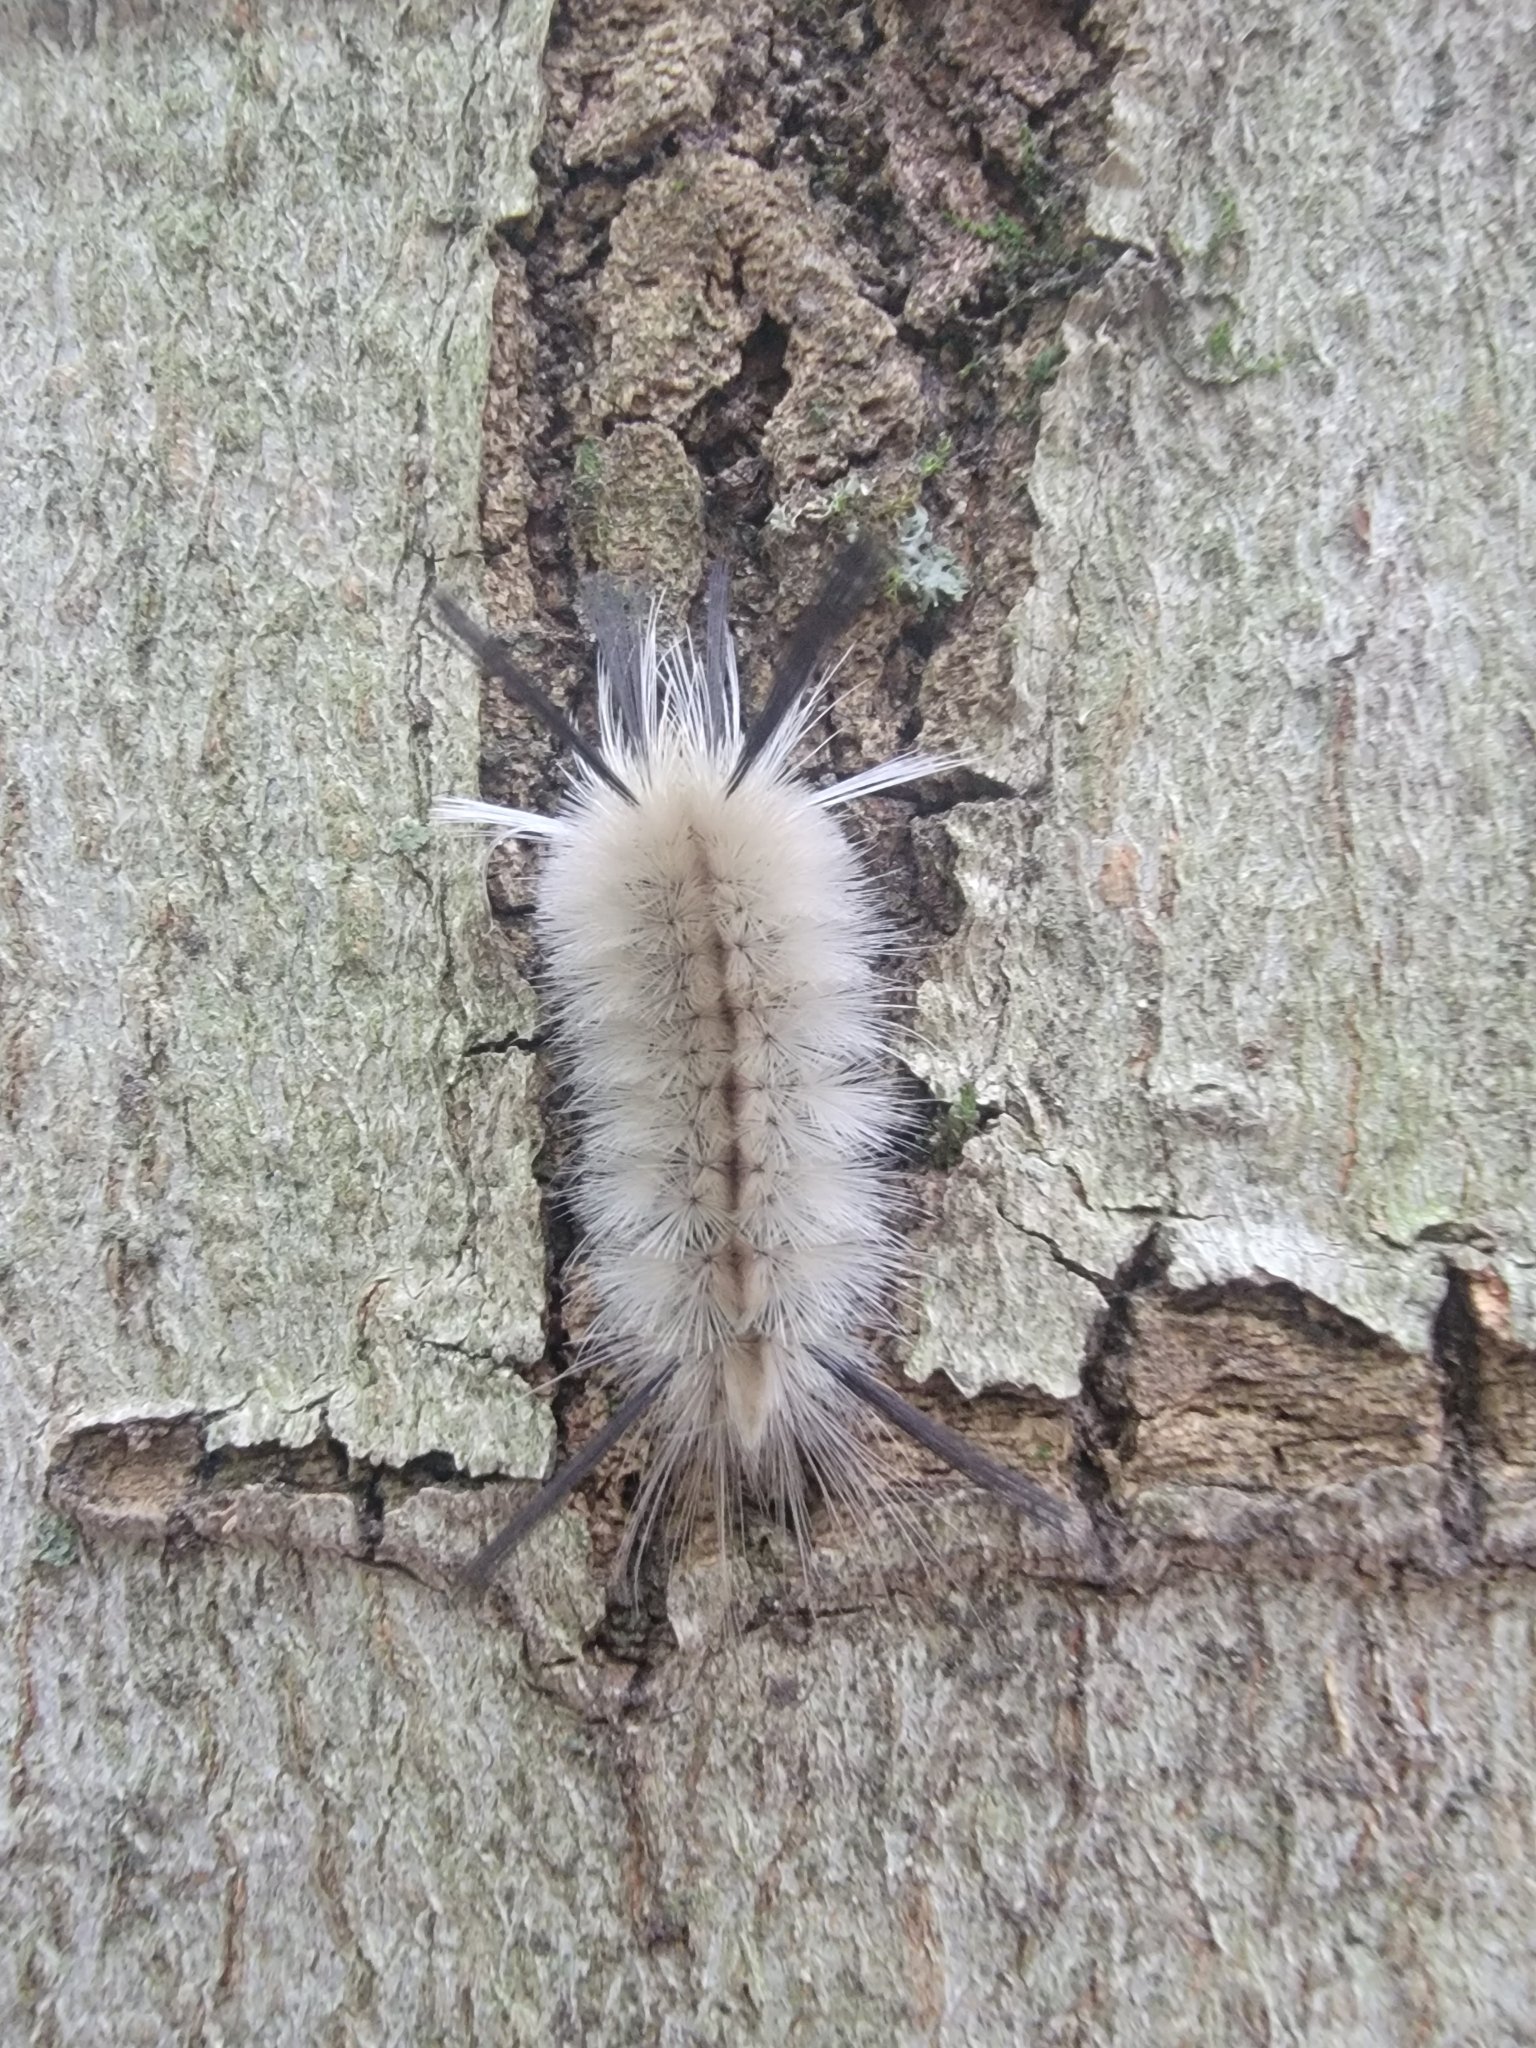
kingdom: Animalia
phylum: Arthropoda
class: Insecta
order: Lepidoptera
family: Erebidae
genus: Halysidota
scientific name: Halysidota tessellaris
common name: Banded tussock moth
